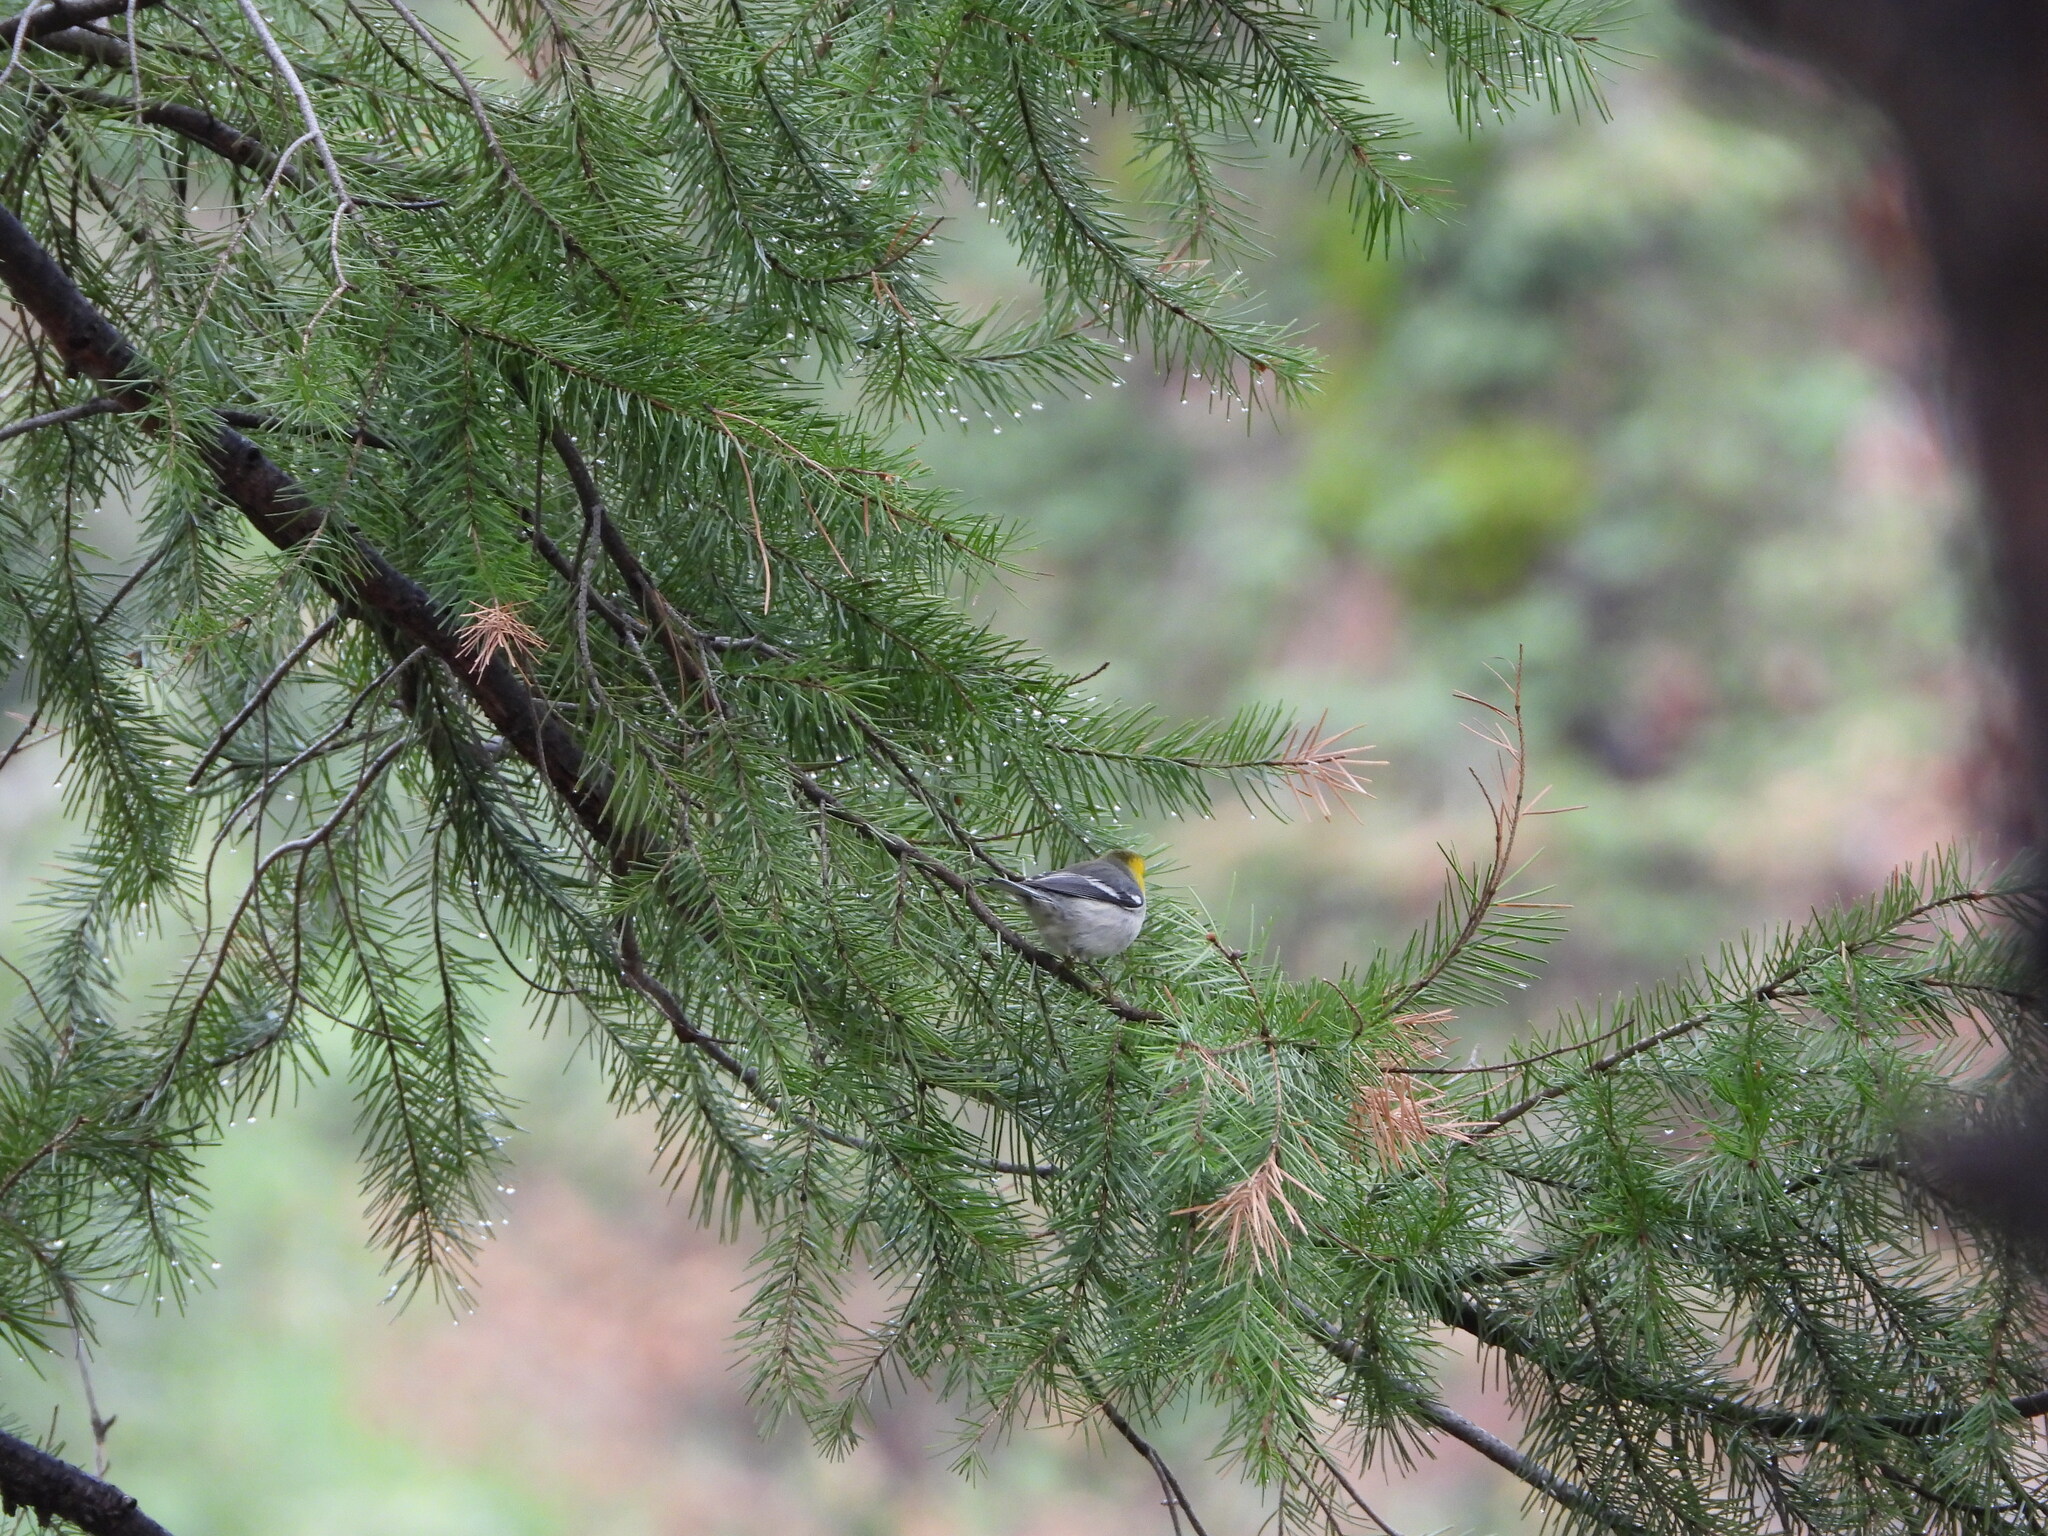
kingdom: Animalia
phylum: Chordata
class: Aves
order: Passeriformes
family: Parulidae
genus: Setophaga
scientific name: Setophaga occidentalis
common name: Hermit warbler
